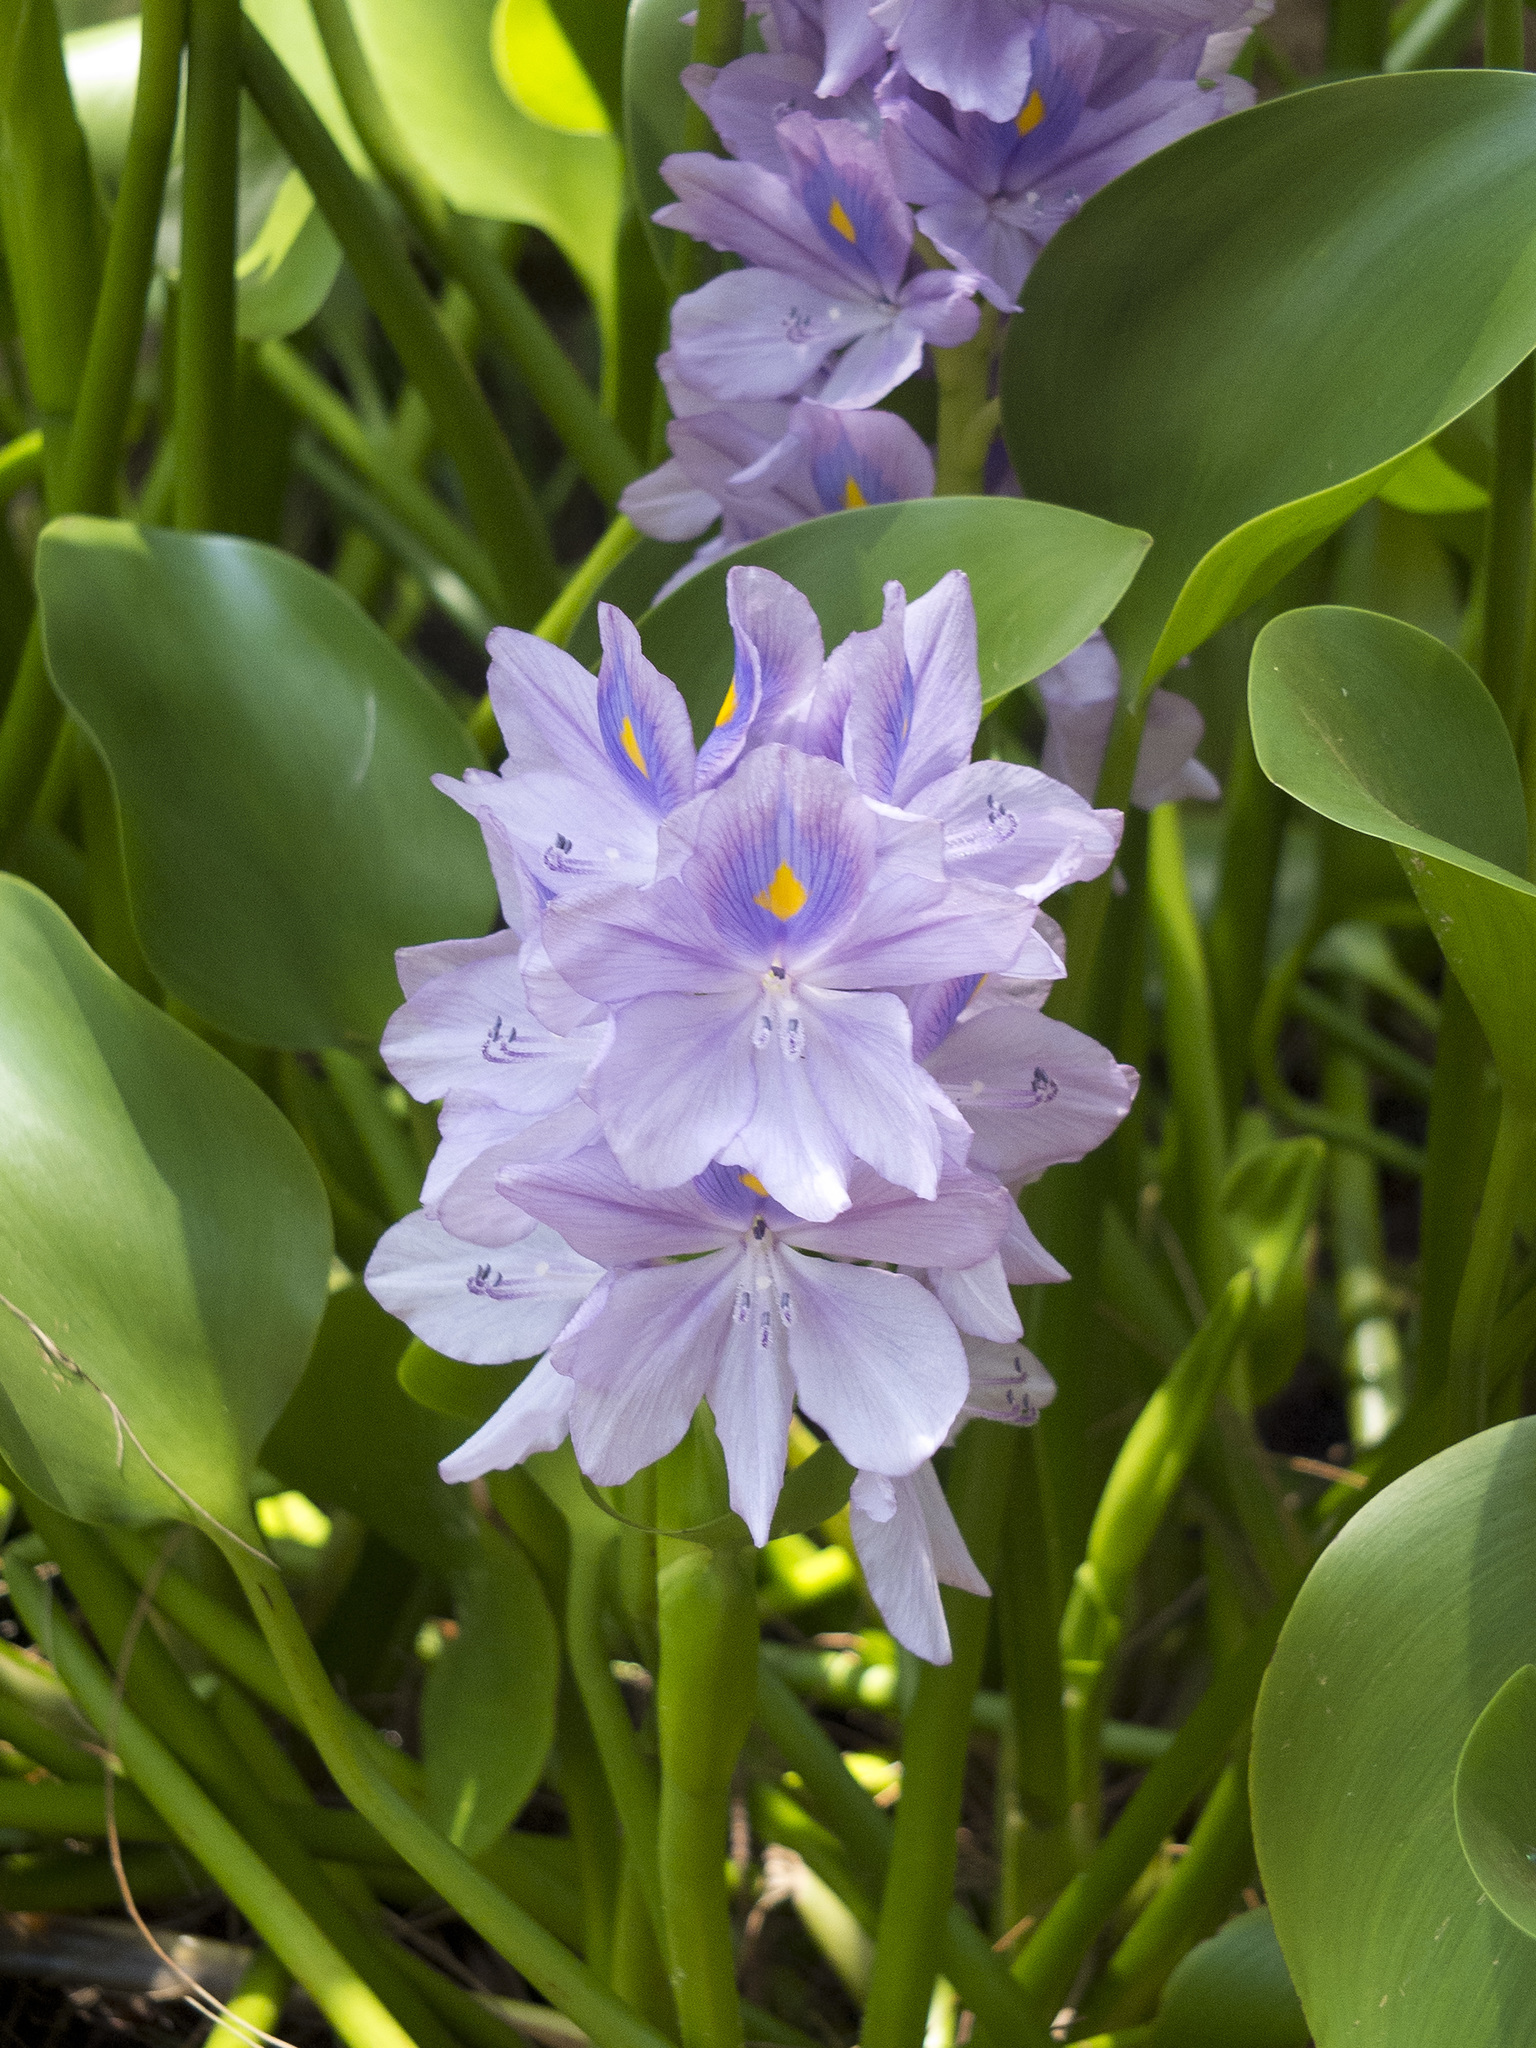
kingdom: Plantae
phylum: Tracheophyta
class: Liliopsida
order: Commelinales
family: Pontederiaceae
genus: Pontederia
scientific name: Pontederia crassipes
